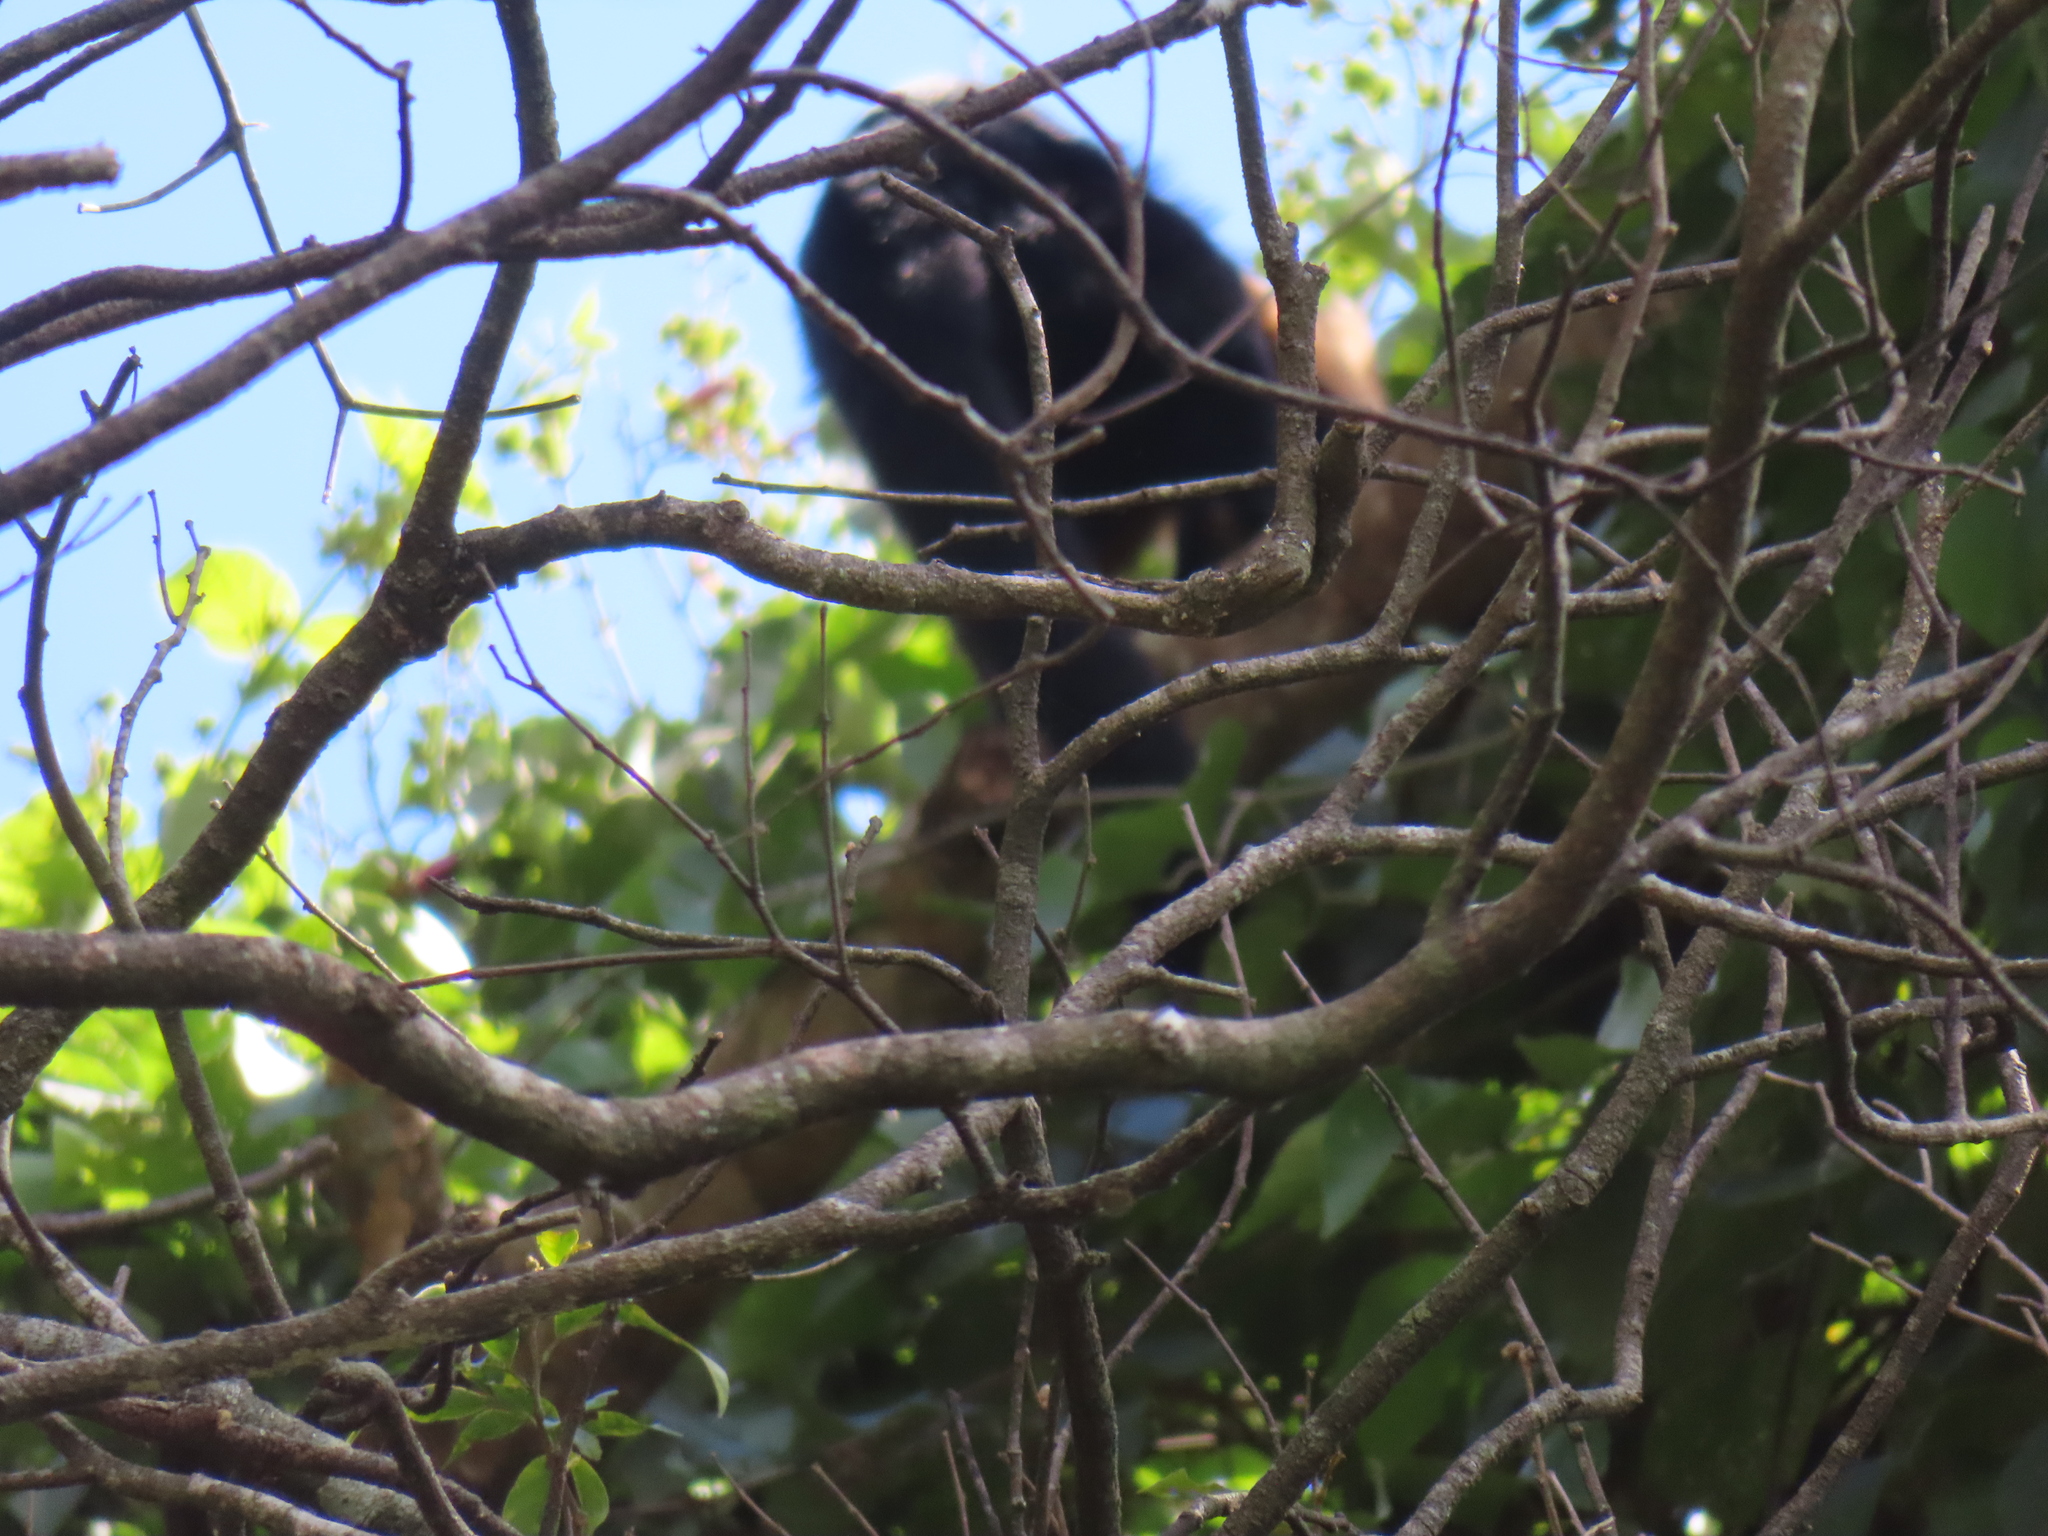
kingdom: Animalia
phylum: Chordata
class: Mammalia
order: Primates
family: Atelidae
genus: Alouatta
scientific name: Alouatta palliata
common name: Mantled howler
